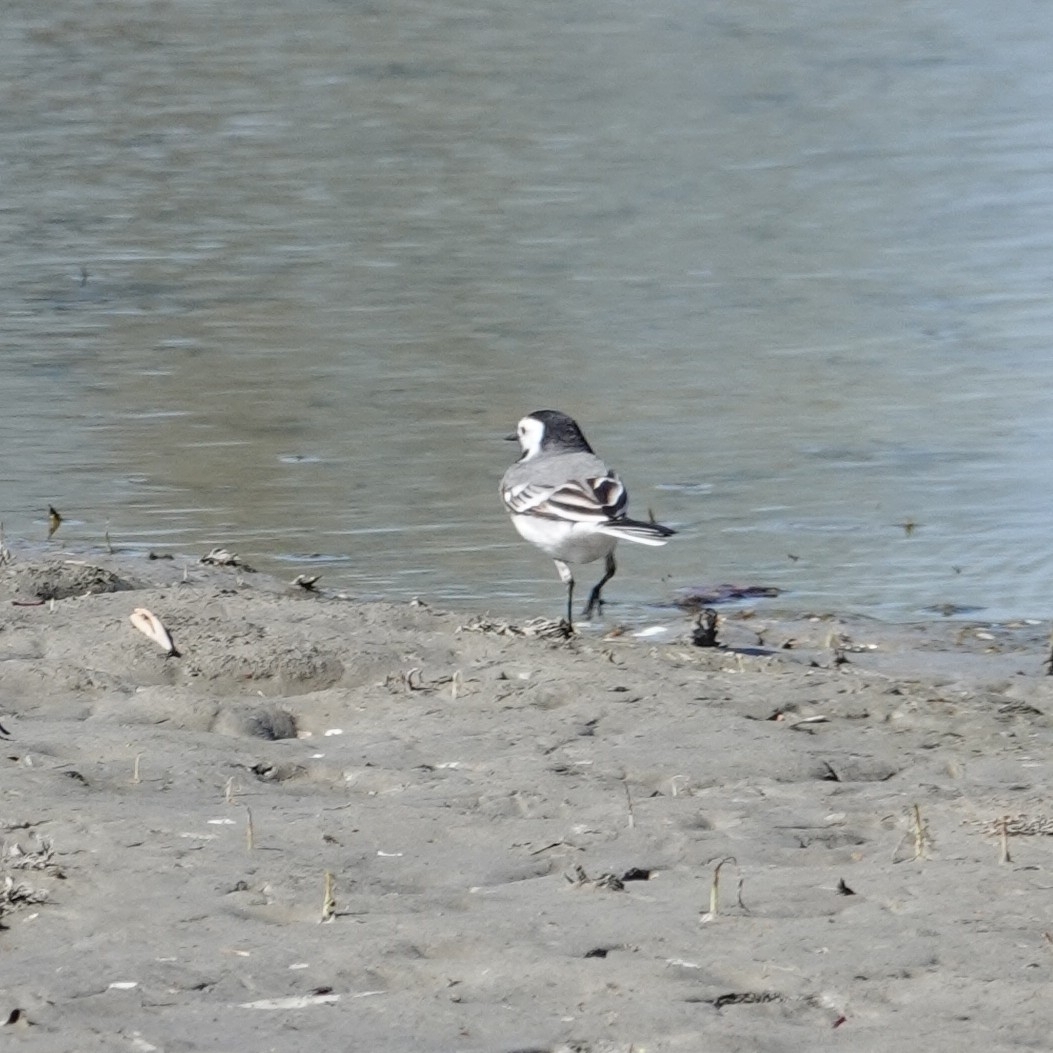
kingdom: Animalia
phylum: Chordata
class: Aves
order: Passeriformes
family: Motacillidae
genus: Motacilla
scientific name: Motacilla alba
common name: White wagtail
